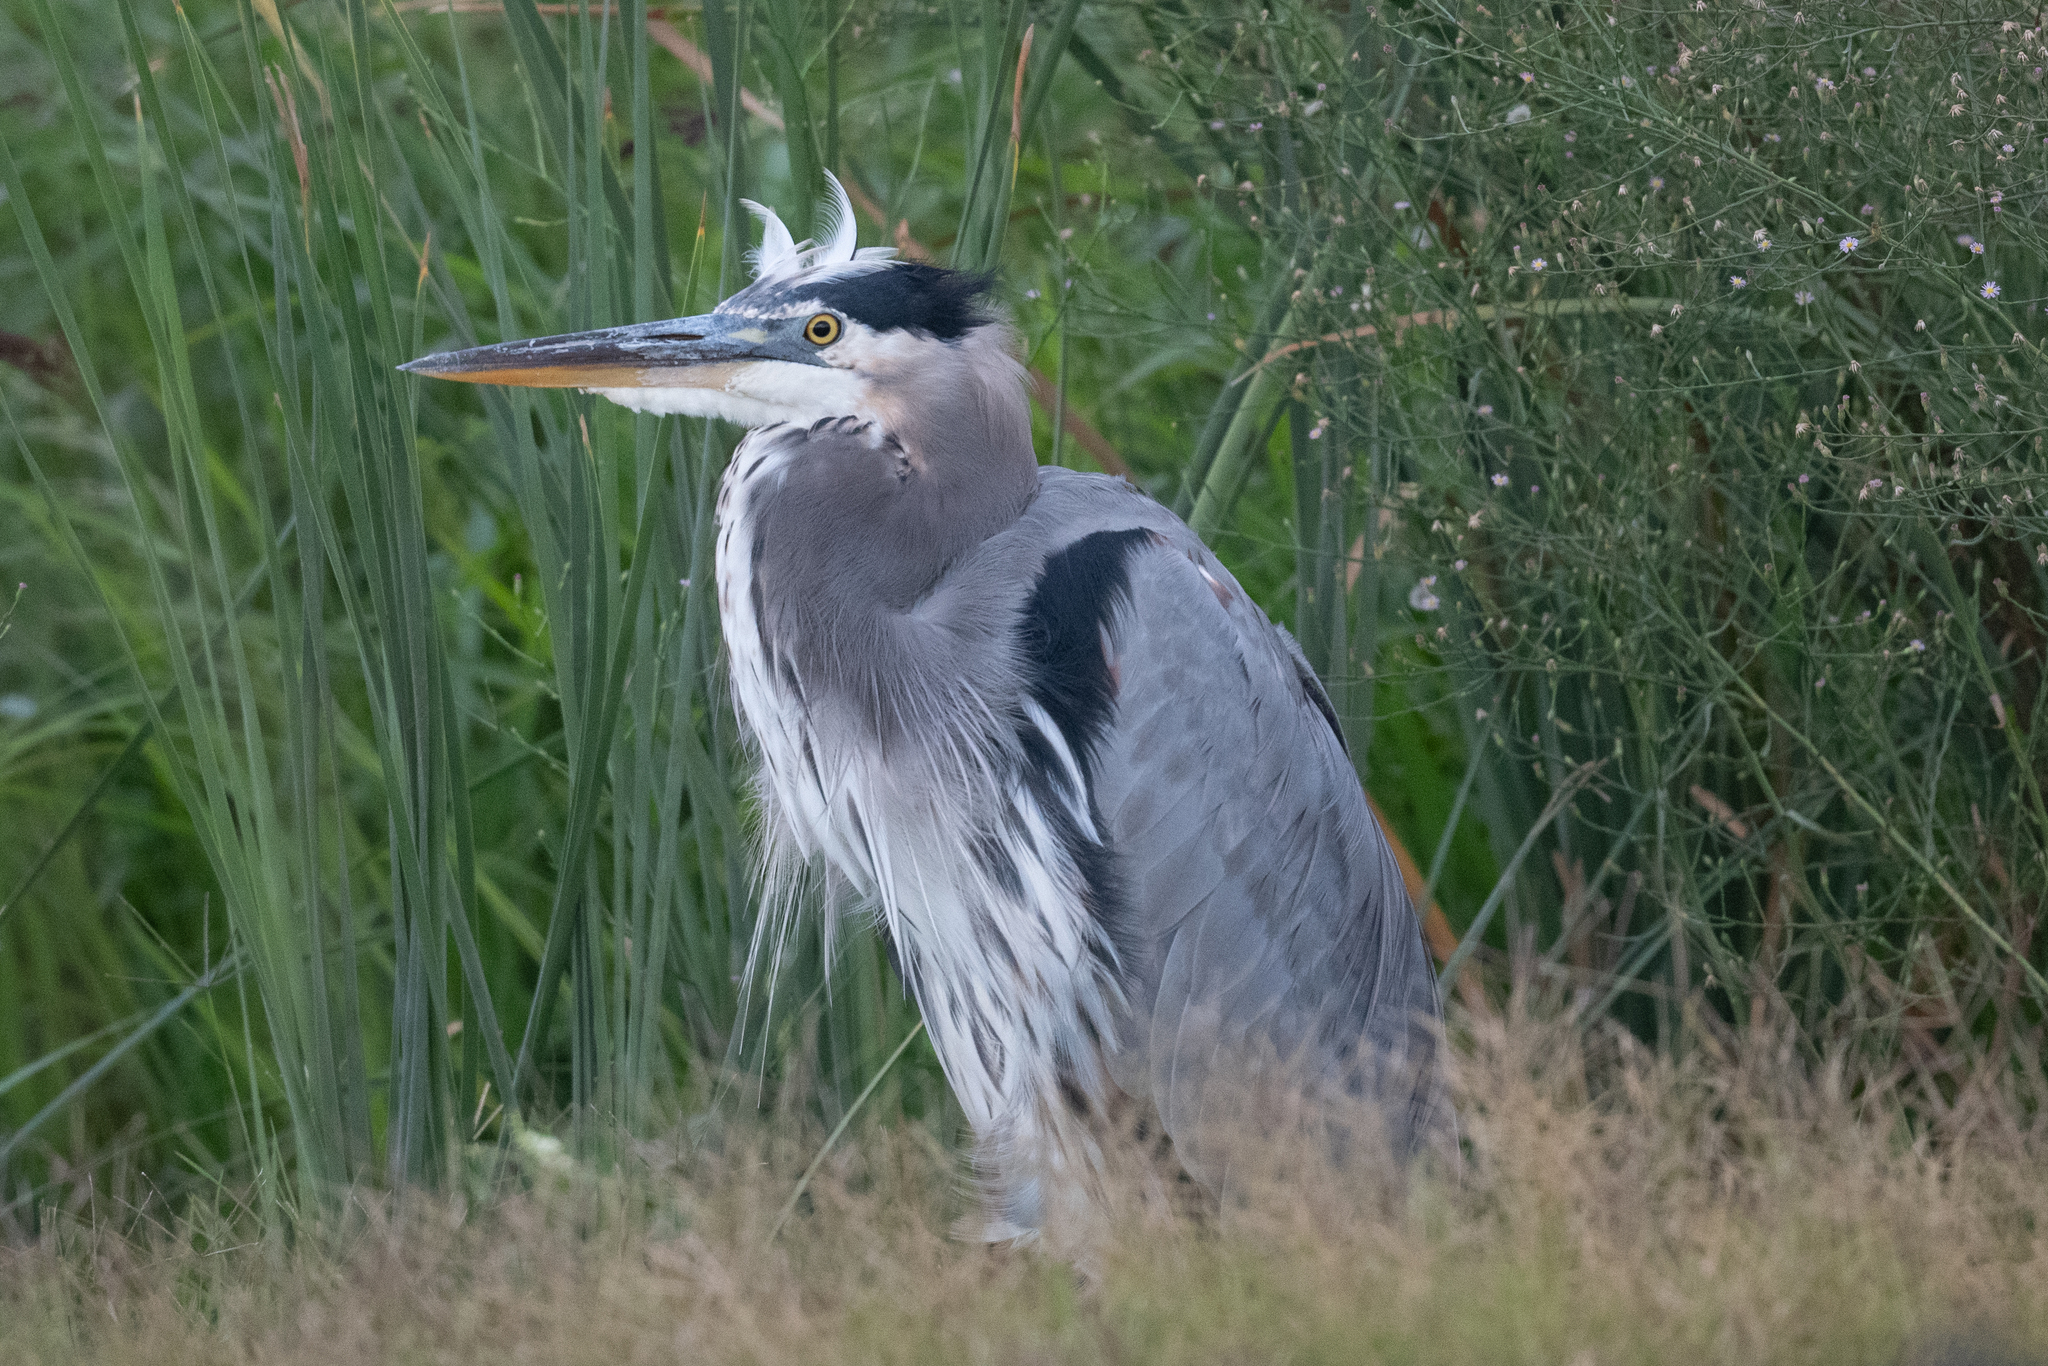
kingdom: Animalia
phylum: Chordata
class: Aves
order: Pelecaniformes
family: Ardeidae
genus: Ardea
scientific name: Ardea herodias
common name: Great blue heron
